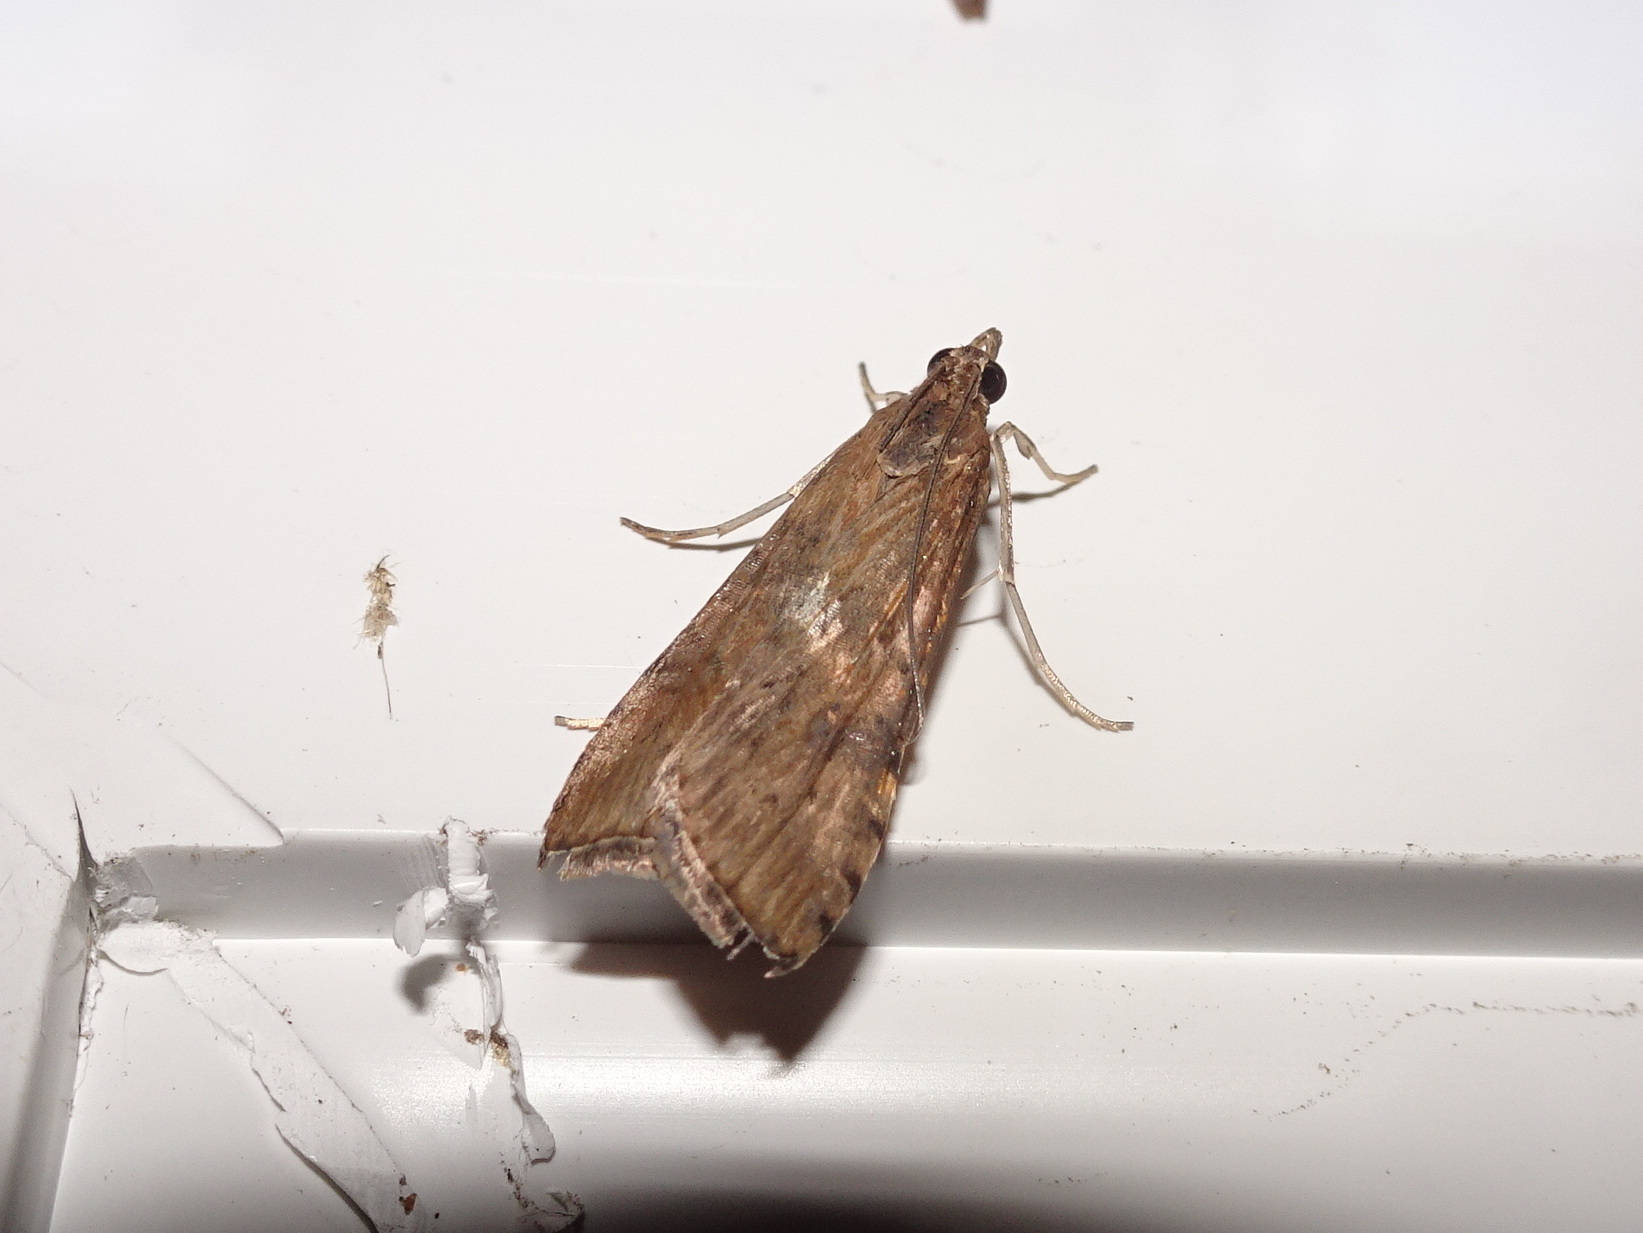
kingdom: Animalia
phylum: Arthropoda
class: Insecta
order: Lepidoptera
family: Crambidae
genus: Nomophila
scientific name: Nomophila nearctica
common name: American rush veneer
